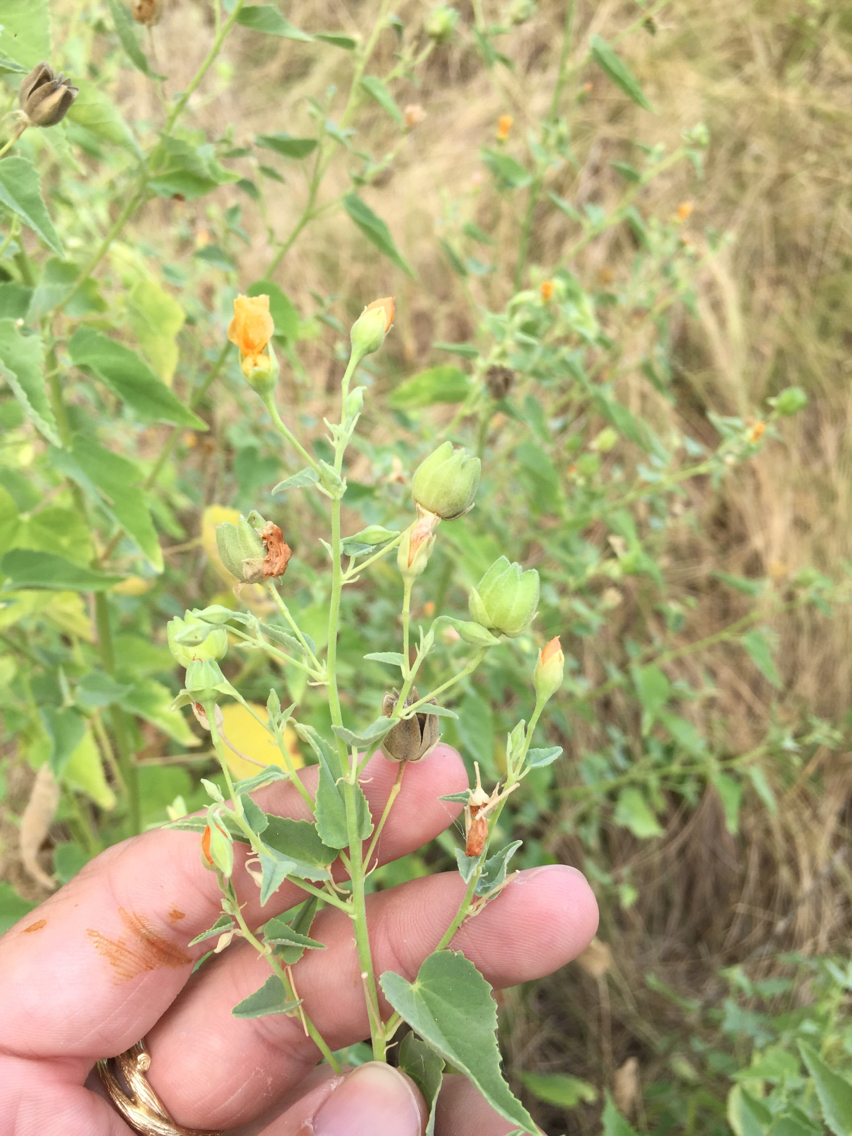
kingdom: Plantae
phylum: Tracheophyta
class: Magnoliopsida
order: Malvales
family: Malvaceae
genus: Abutilon
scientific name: Abutilon fruticosum
